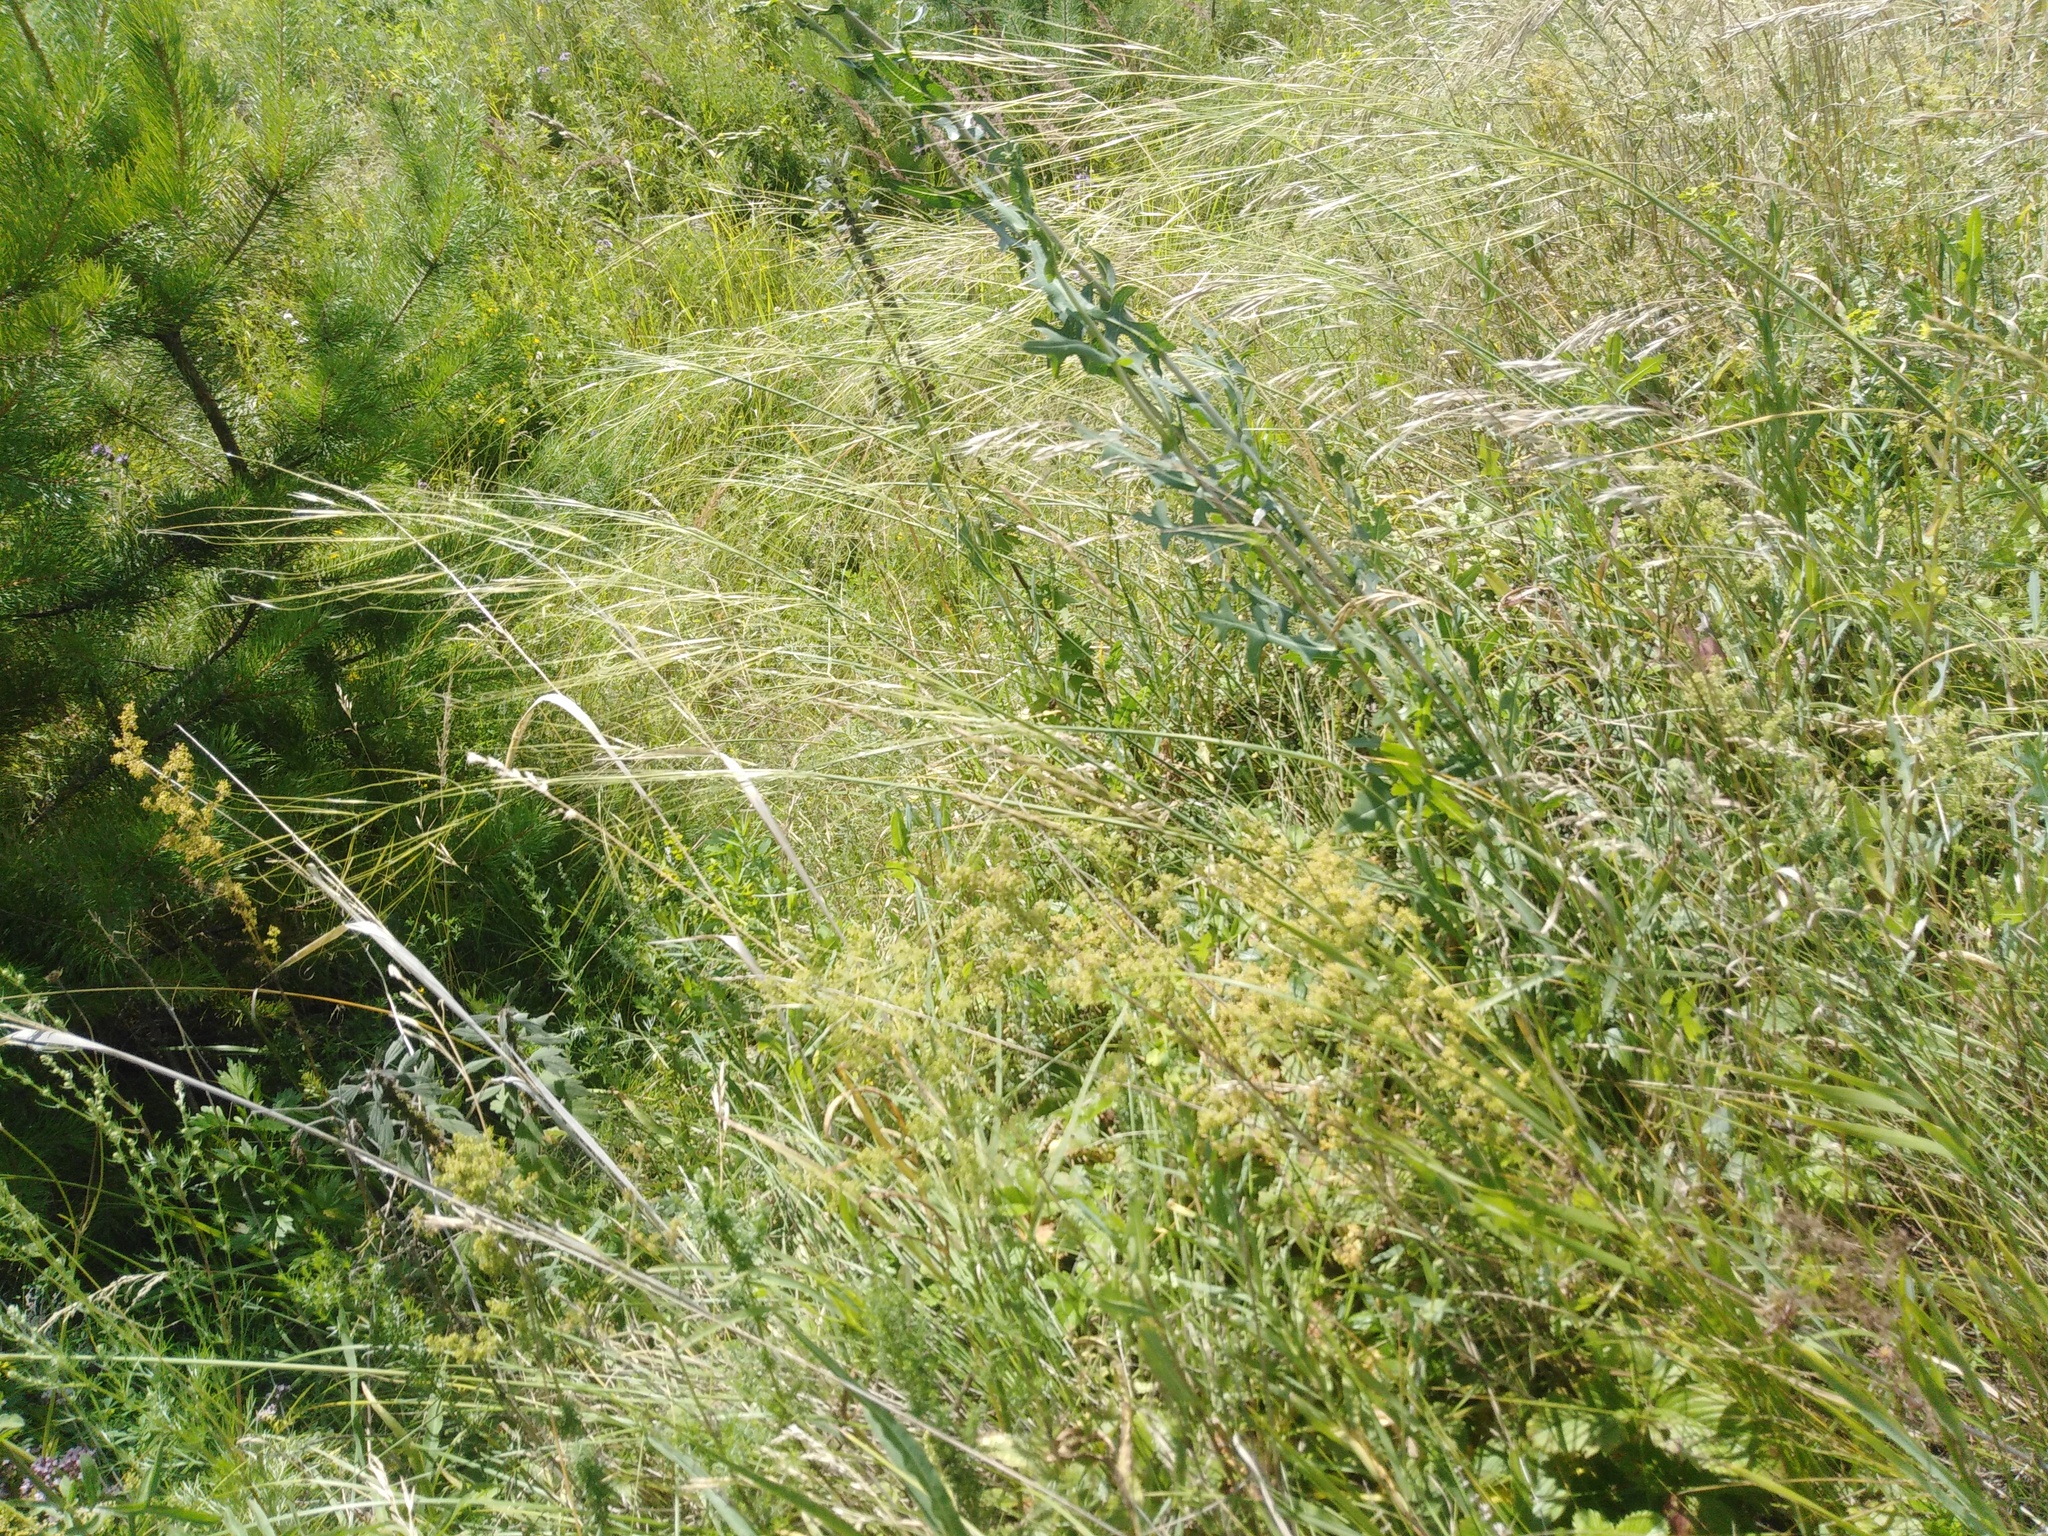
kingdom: Plantae
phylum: Tracheophyta
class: Liliopsida
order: Poales
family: Poaceae
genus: Stipa
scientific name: Stipa capillata
